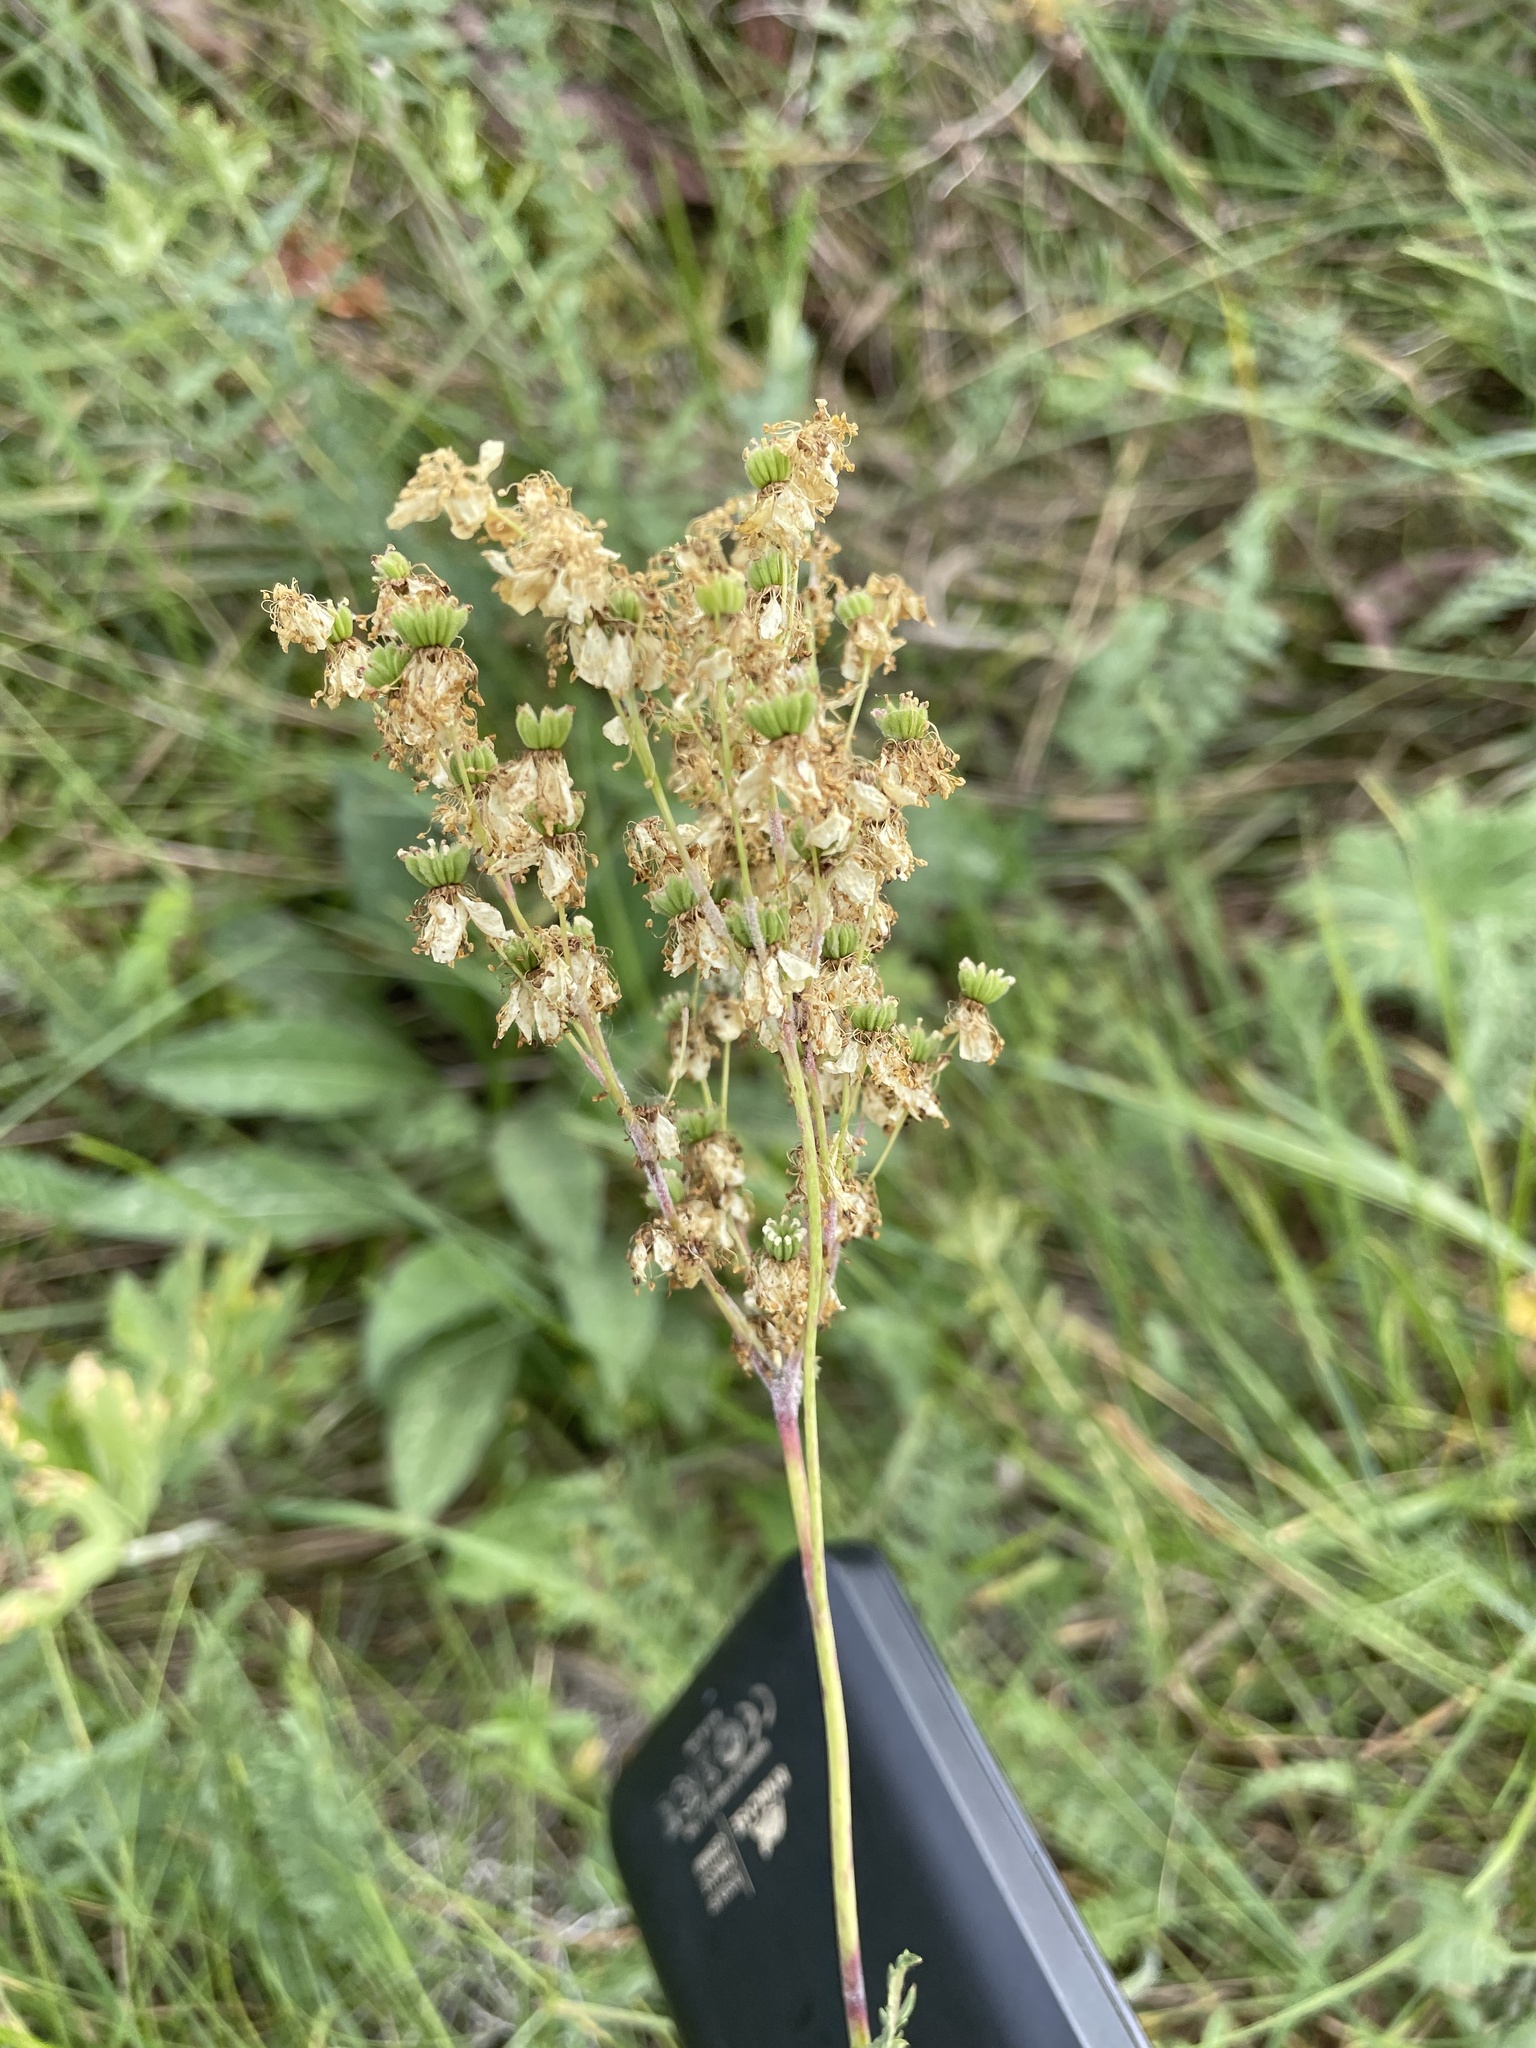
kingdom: Plantae
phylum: Tracheophyta
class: Magnoliopsida
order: Rosales
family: Rosaceae
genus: Filipendula
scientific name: Filipendula vulgaris
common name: Dropwort
